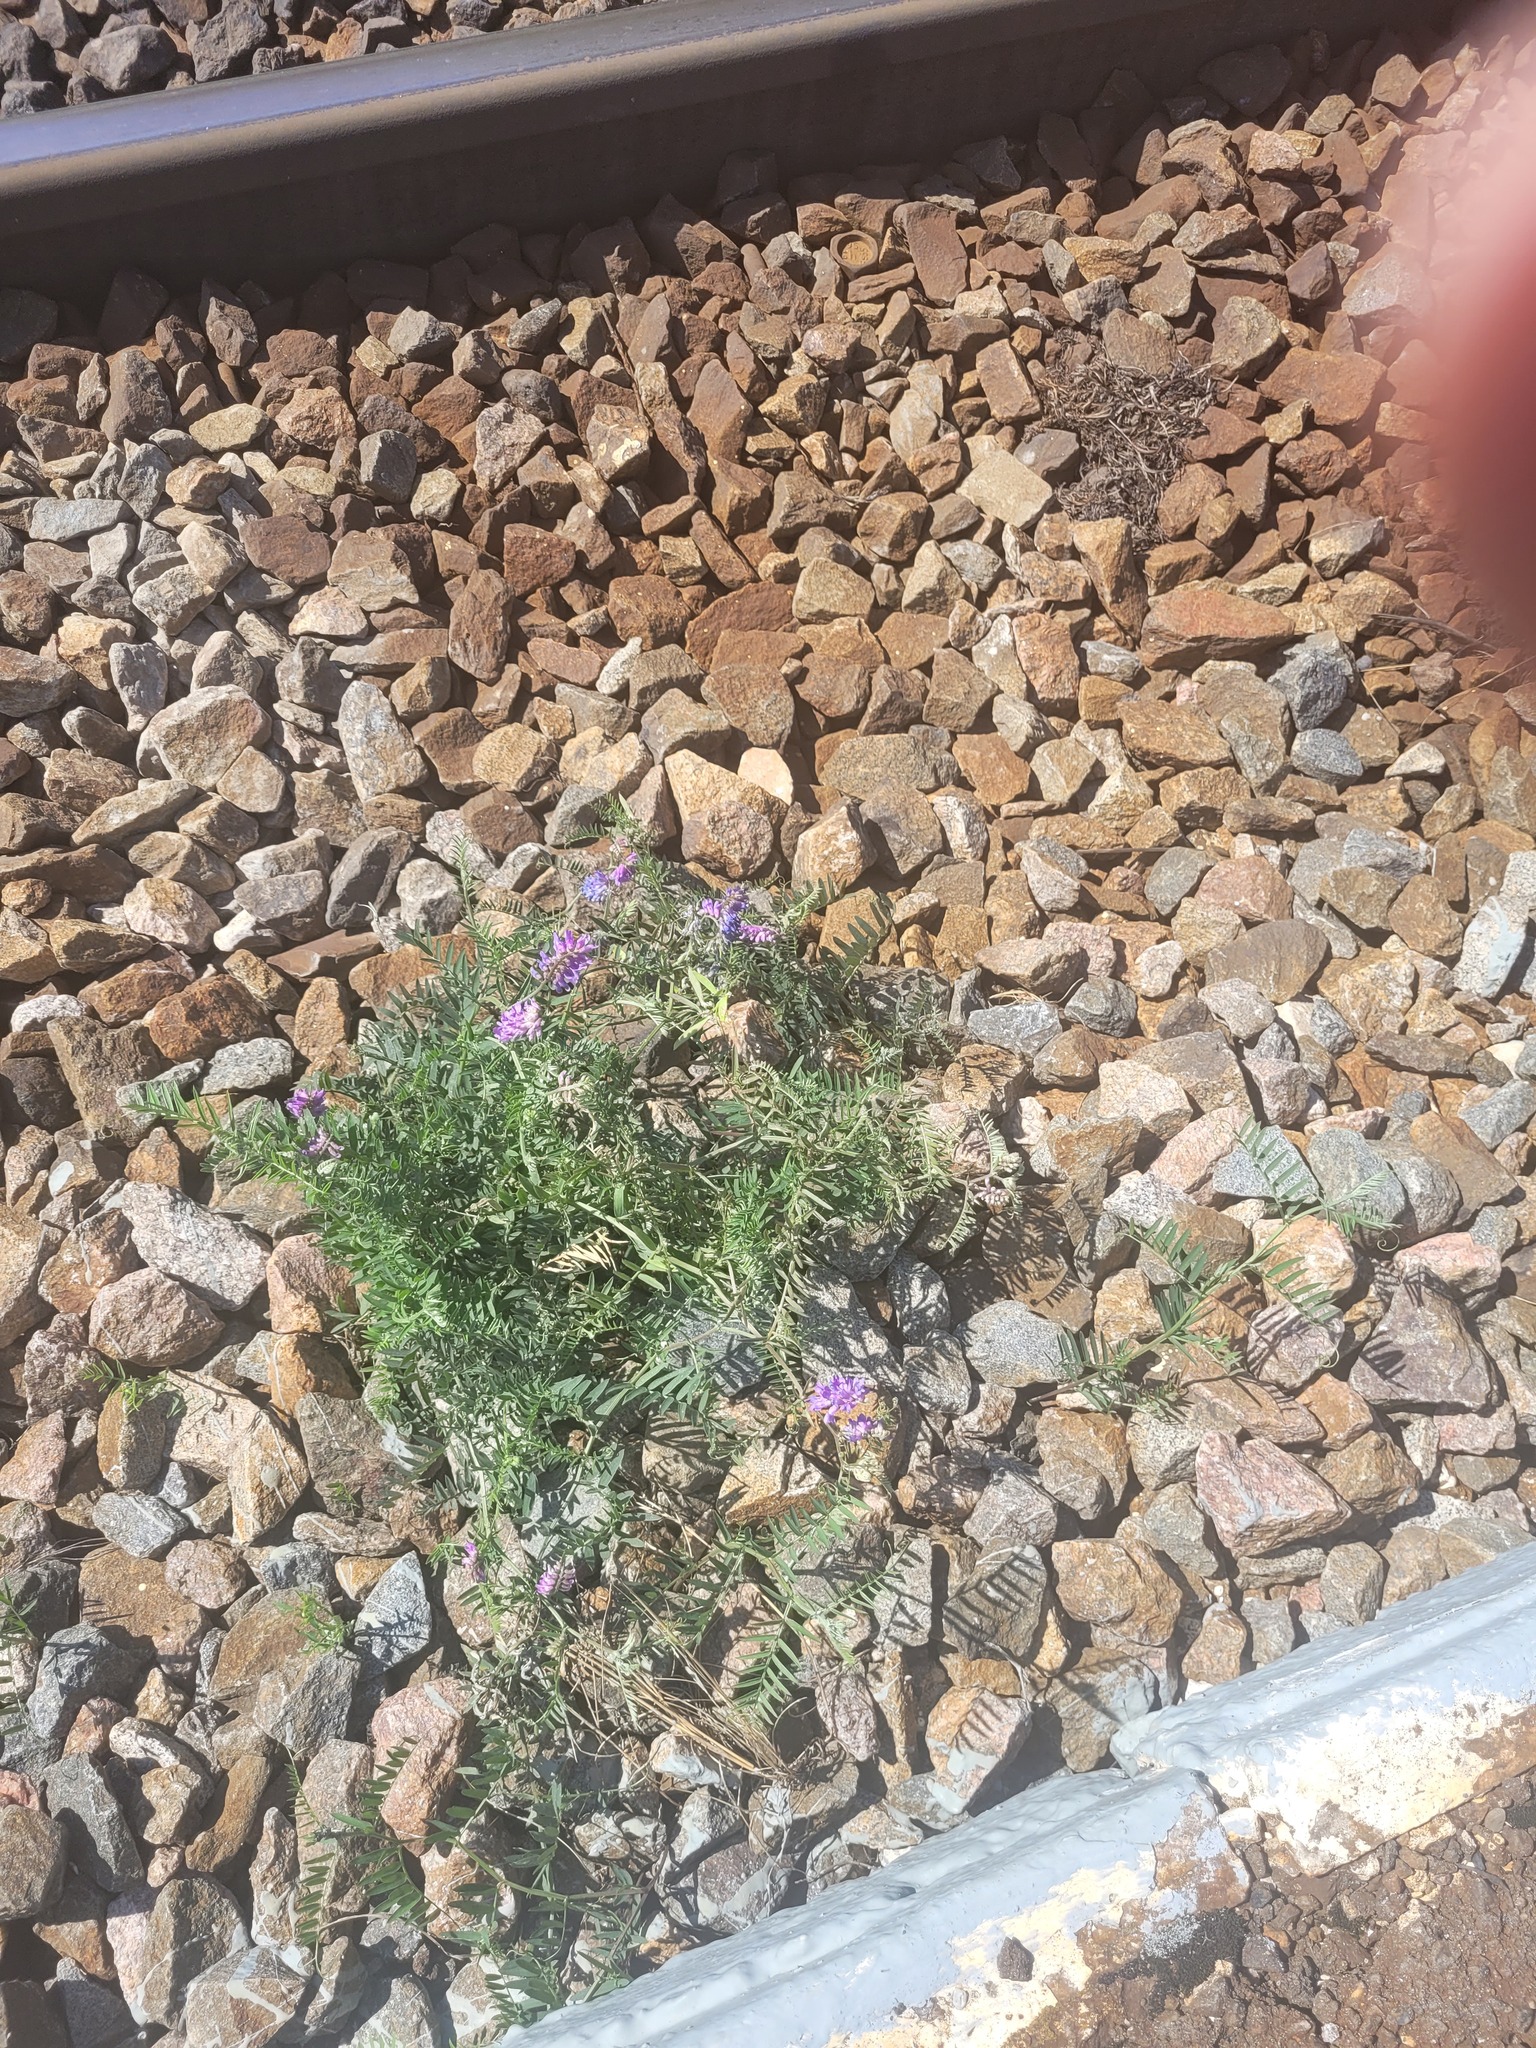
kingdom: Plantae
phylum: Tracheophyta
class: Magnoliopsida
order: Fabales
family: Fabaceae
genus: Vicia
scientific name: Vicia cracca
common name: Bird vetch
